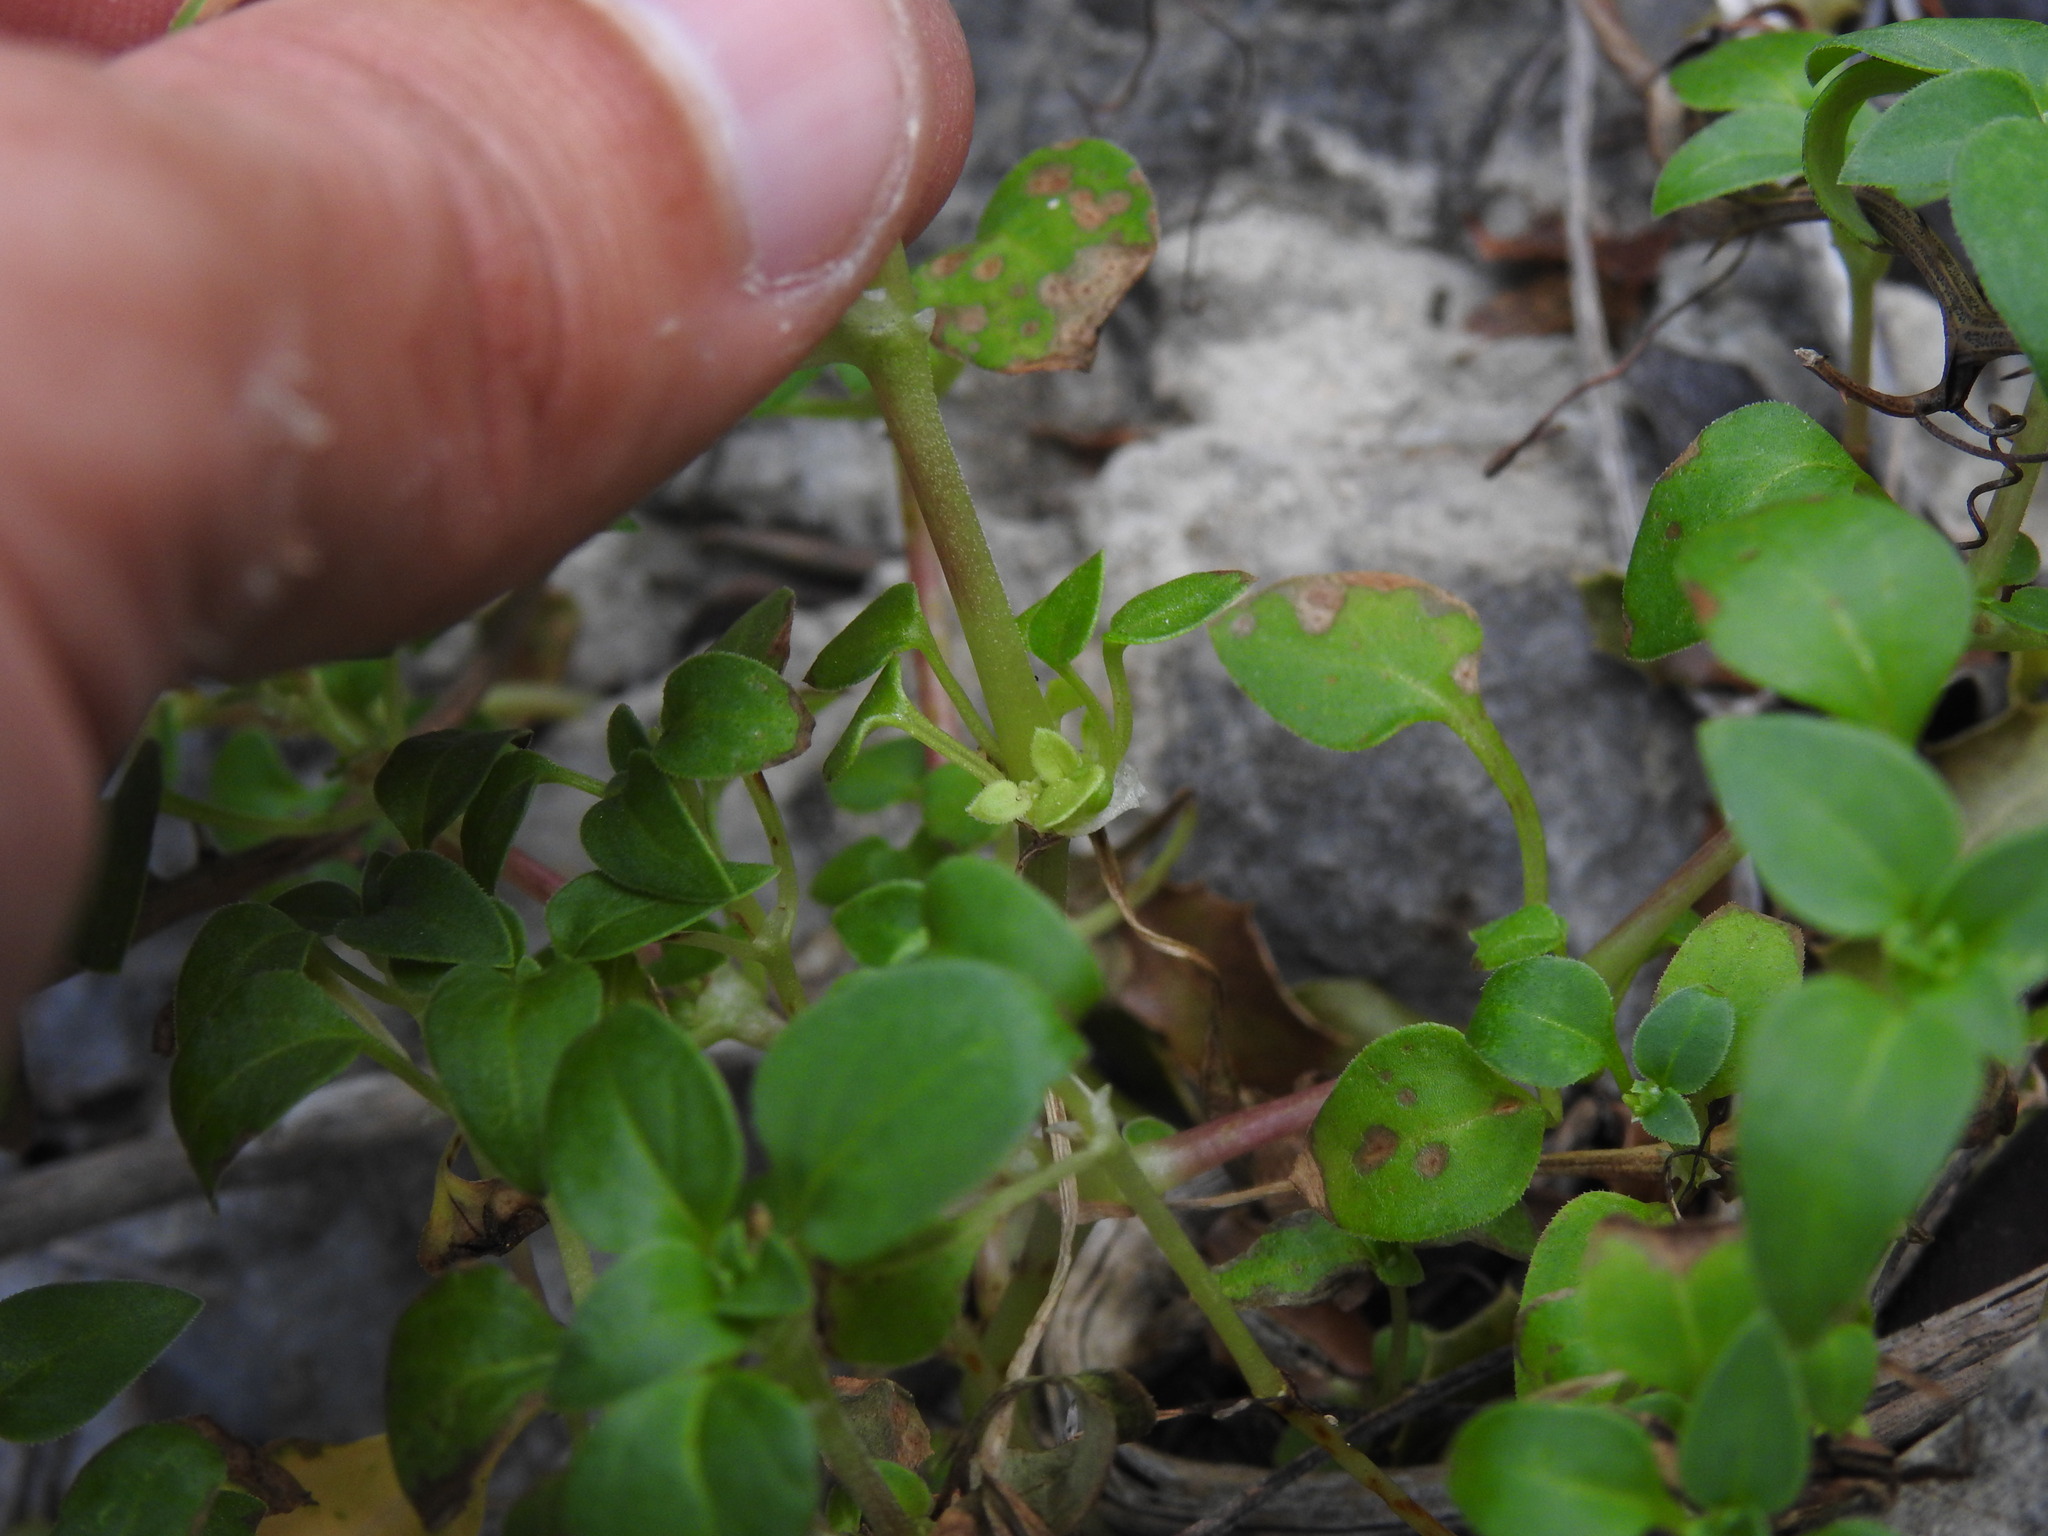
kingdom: Plantae
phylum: Tracheophyta
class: Magnoliopsida
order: Gentianales
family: Rubiaceae
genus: Theligonum
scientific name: Theligonum cynocrambe
